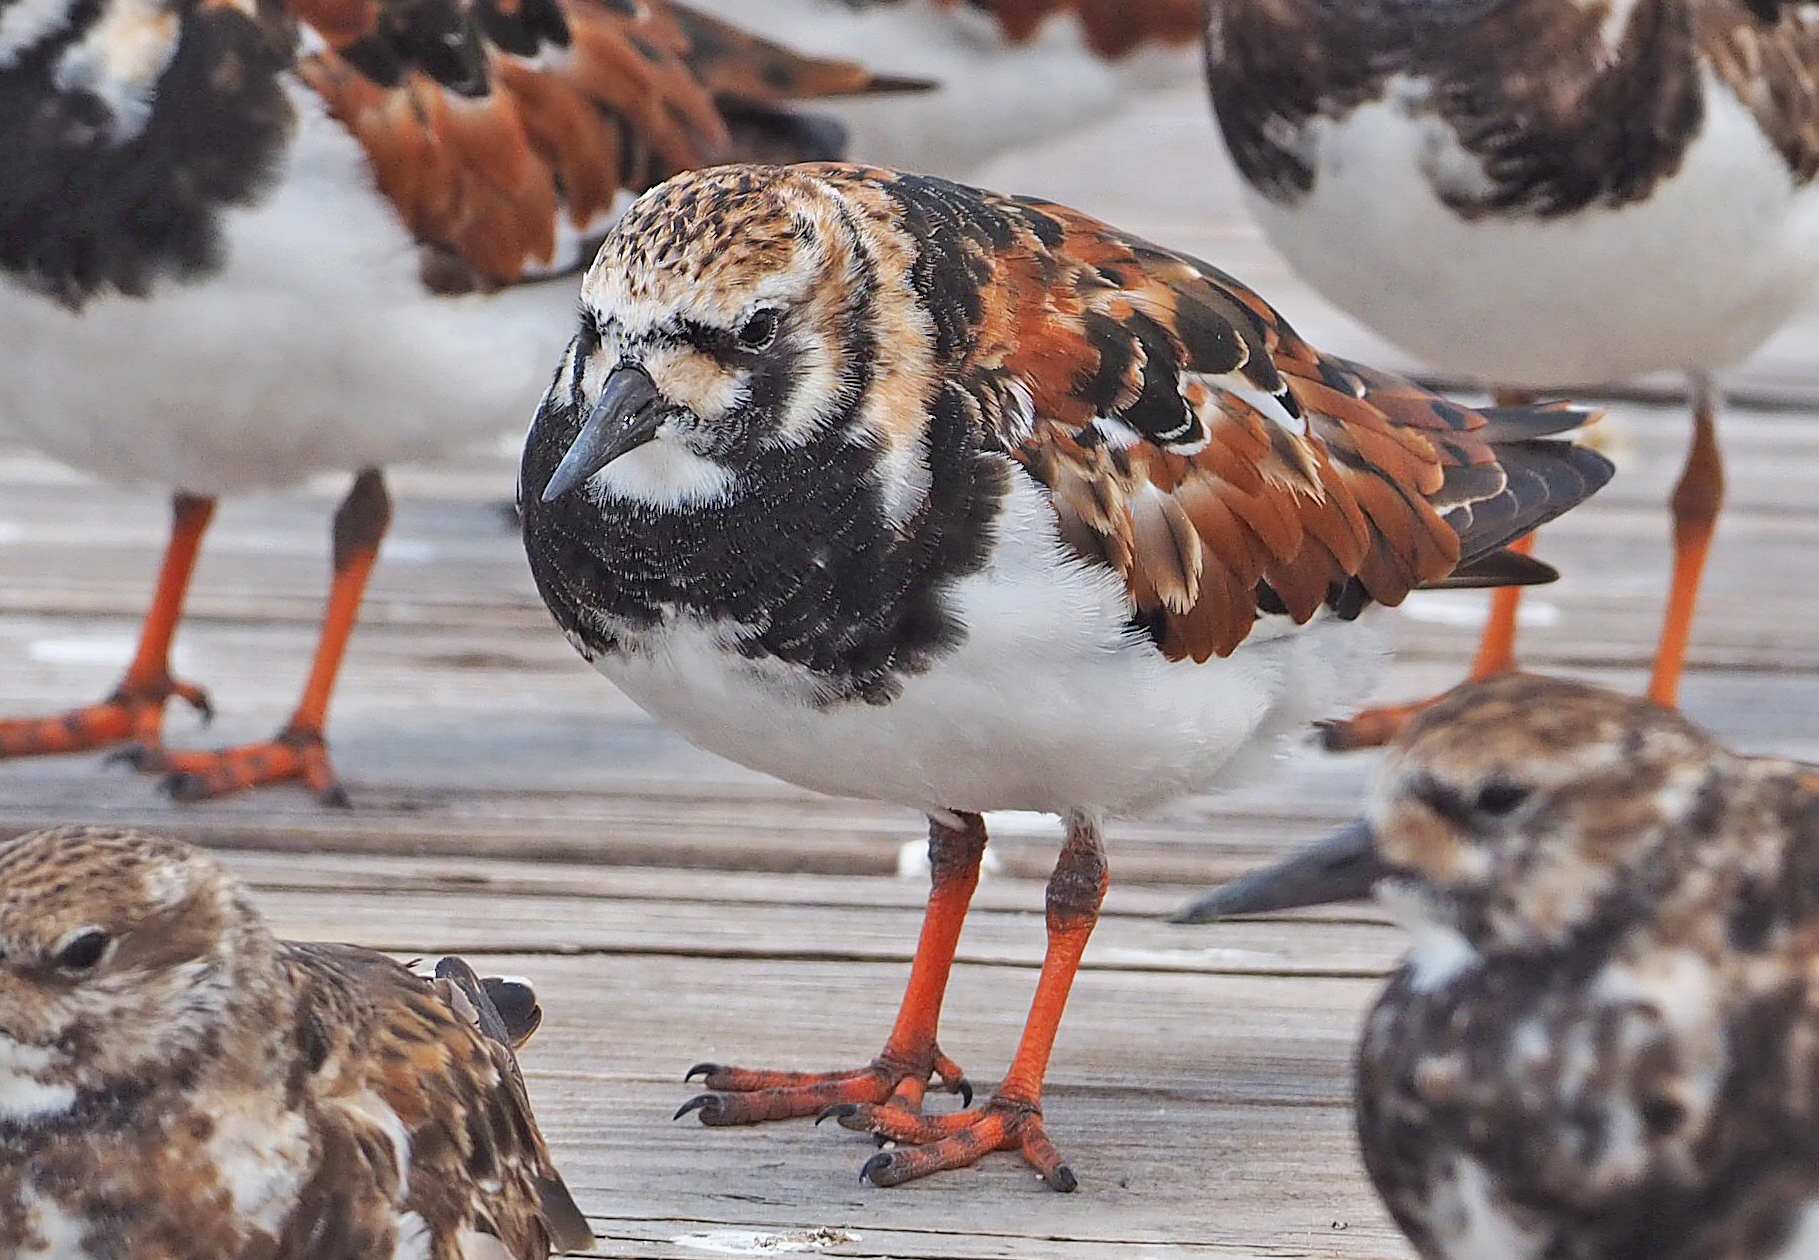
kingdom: Animalia
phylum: Chordata
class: Aves
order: Charadriiformes
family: Scolopacidae
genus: Arenaria
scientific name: Arenaria interpres
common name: Ruddy turnstone
